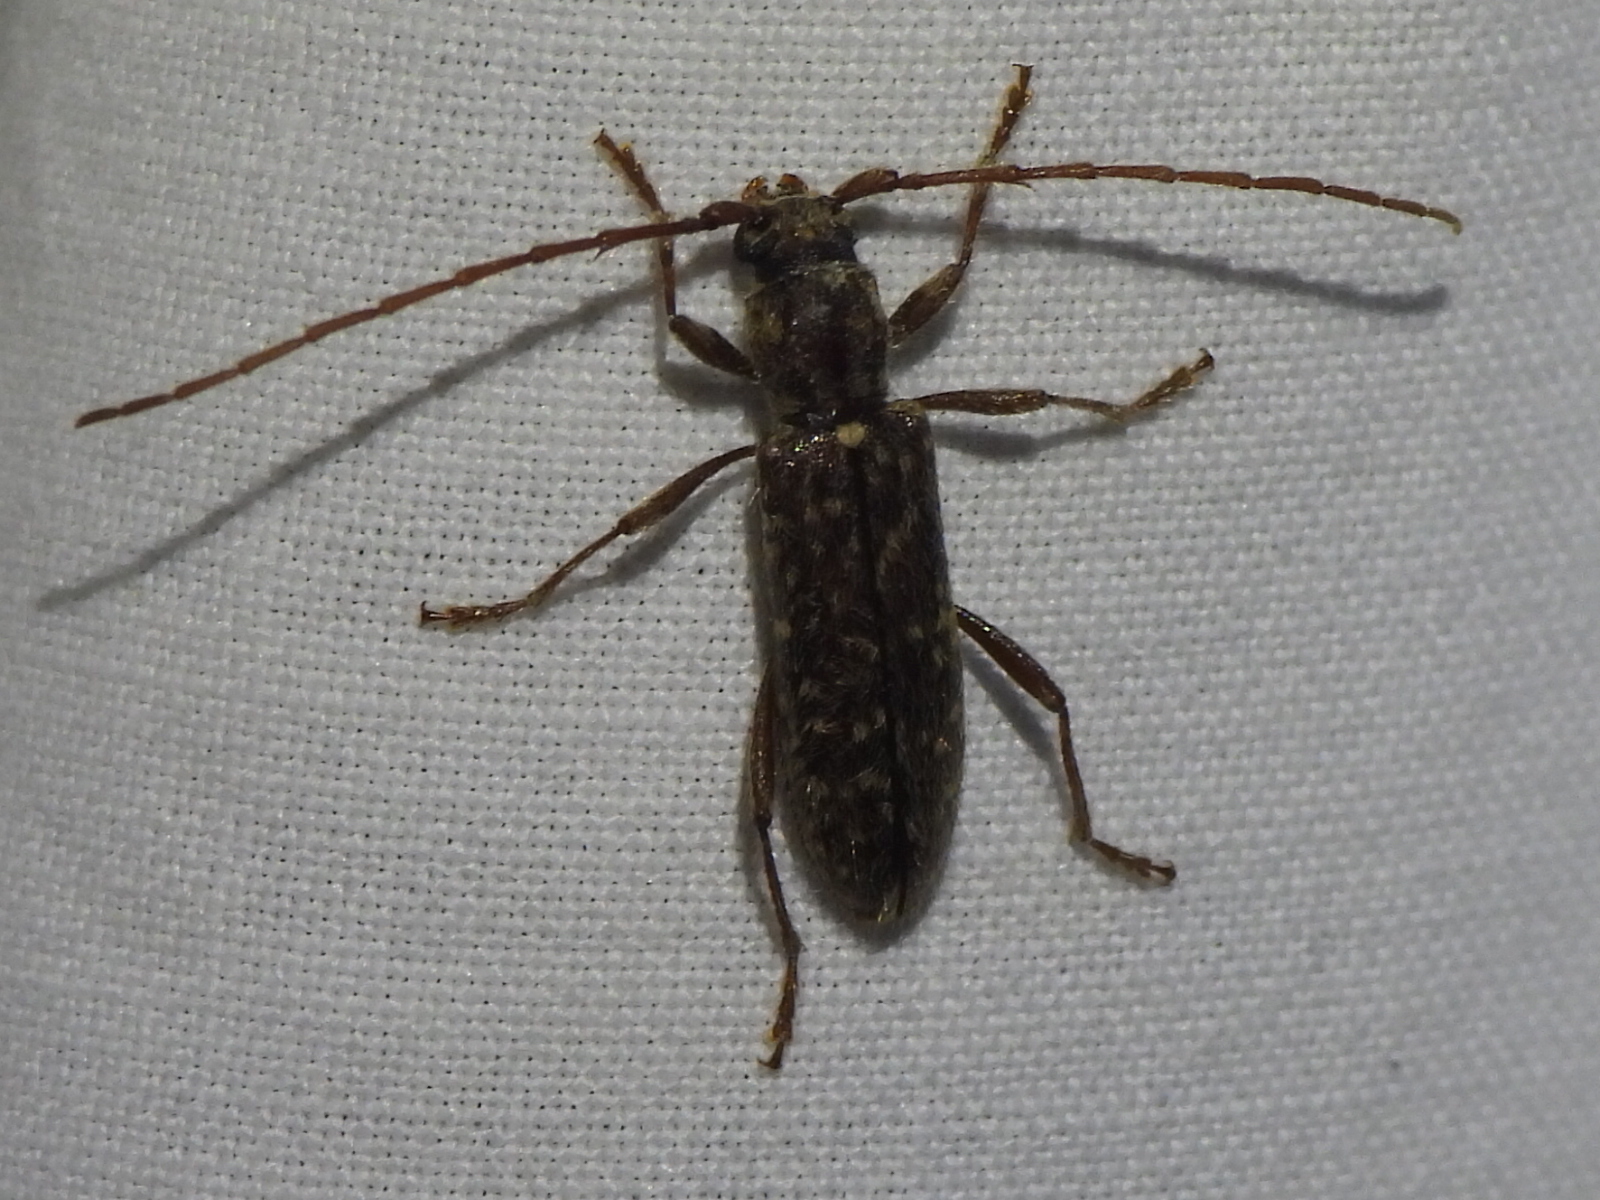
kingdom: Animalia
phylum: Arthropoda
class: Insecta
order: Coleoptera
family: Cerambycidae
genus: Anelaphus
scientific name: Anelaphus pumilus
